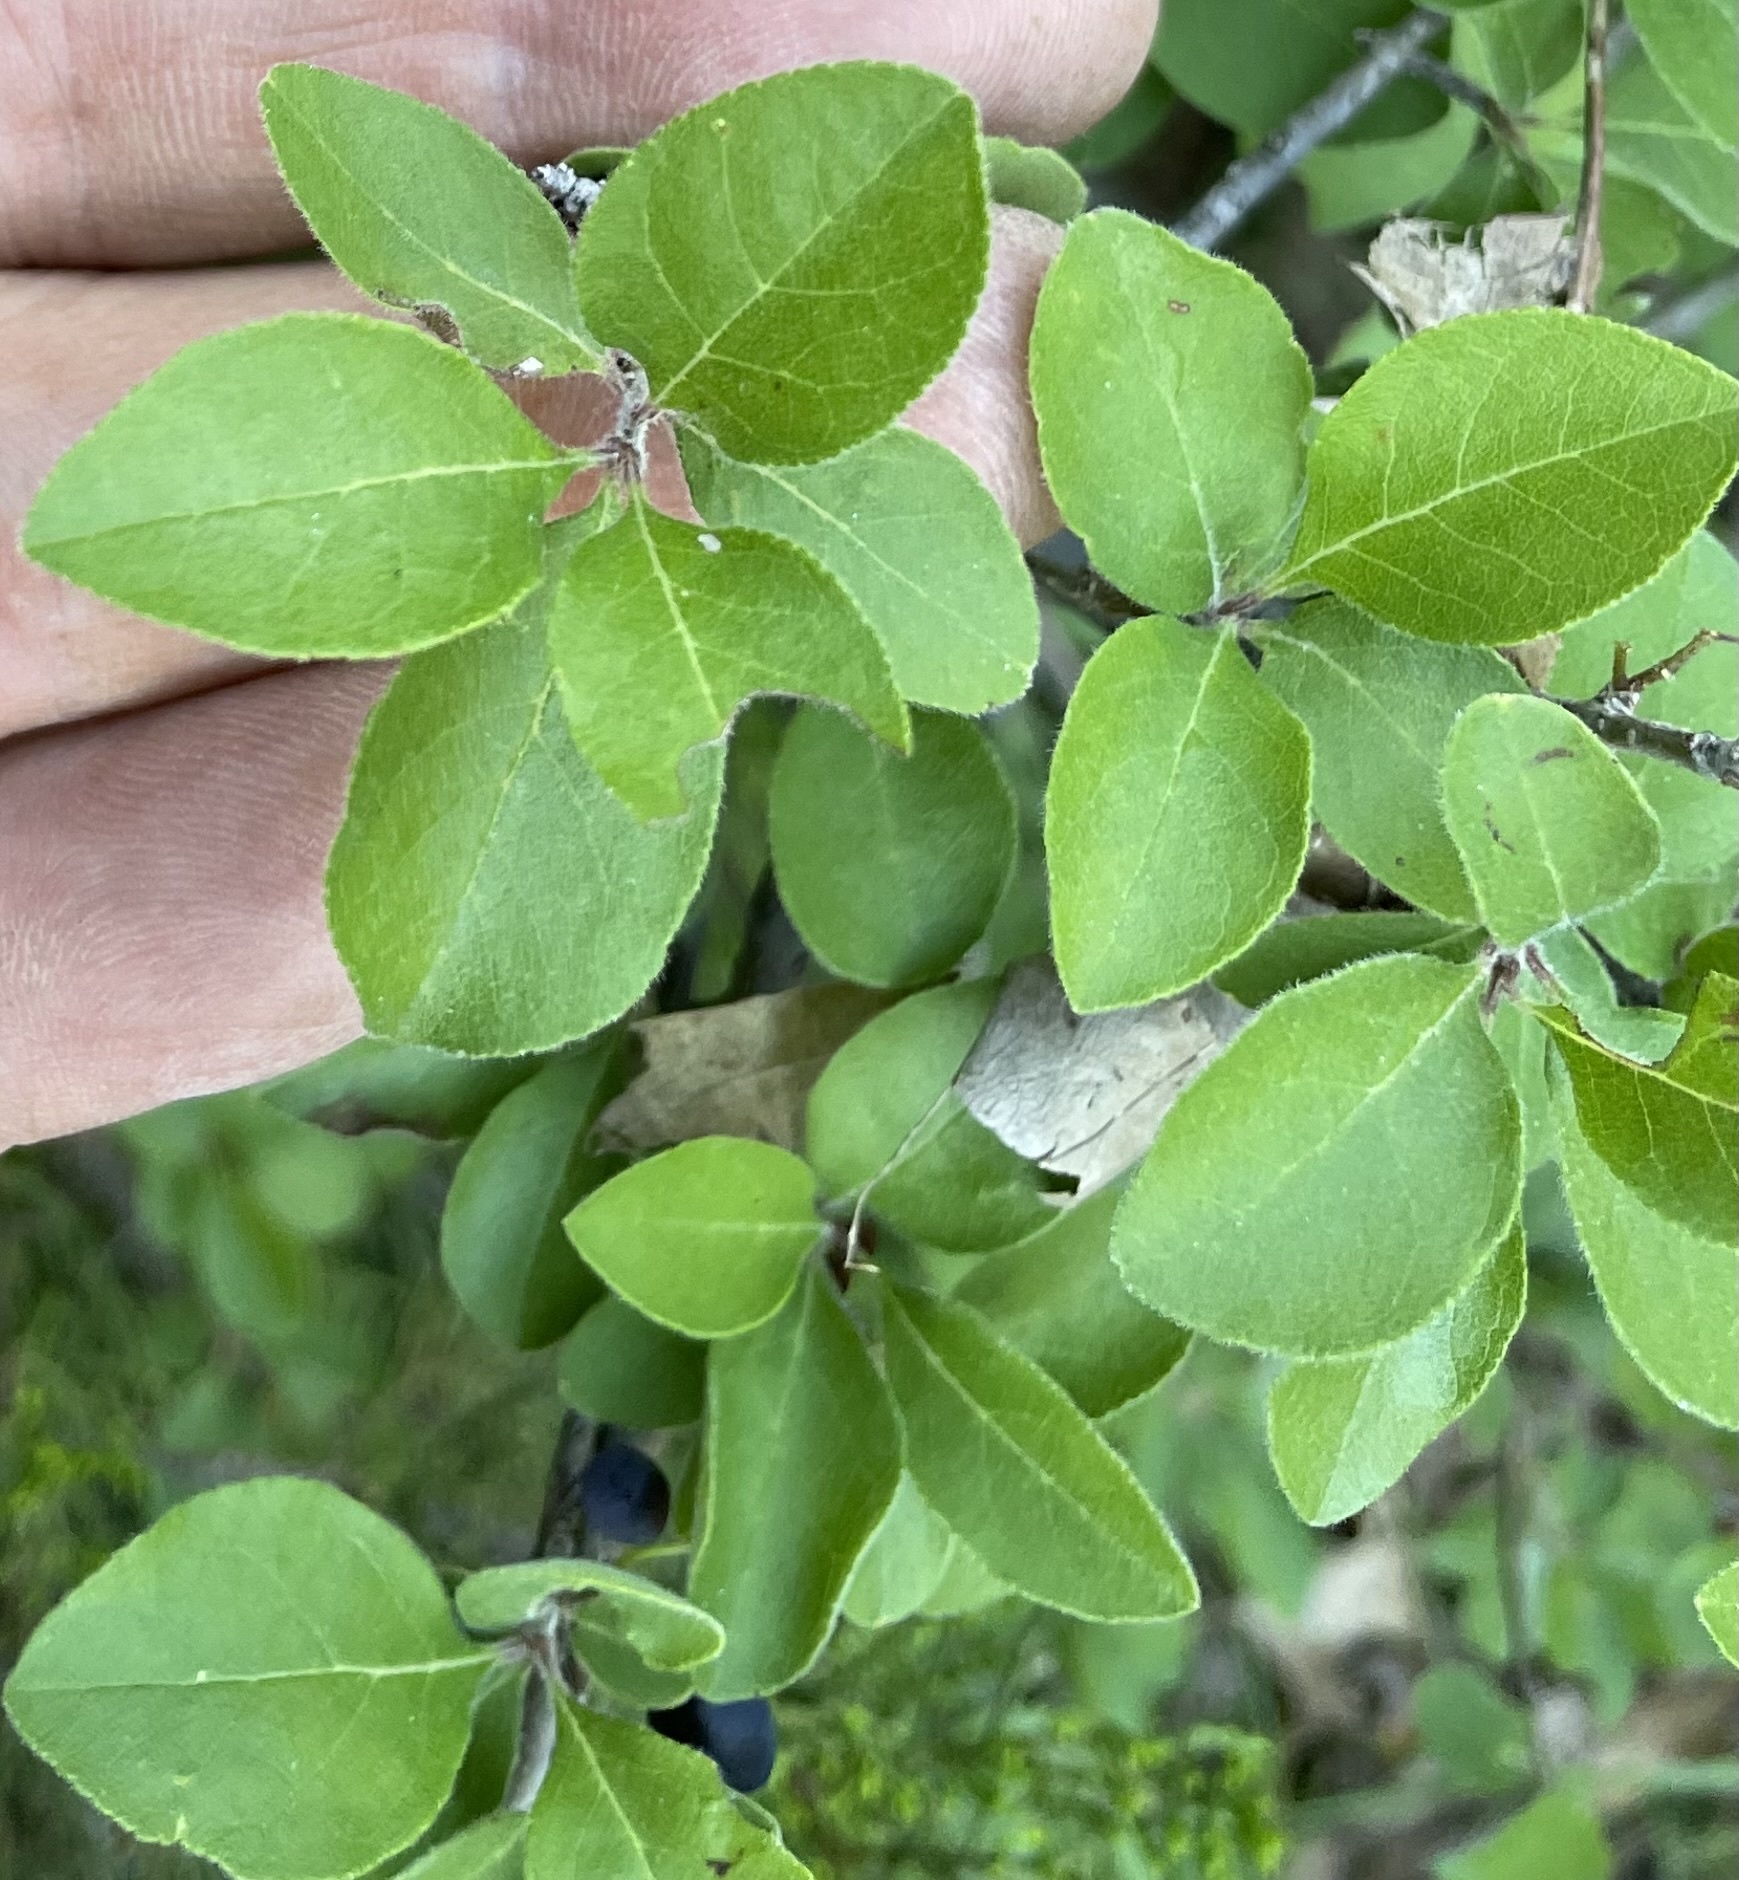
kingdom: Plantae
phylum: Tracheophyta
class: Magnoliopsida
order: Lamiales
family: Oleaceae
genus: Forestiera
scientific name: Forestiera pubescens
